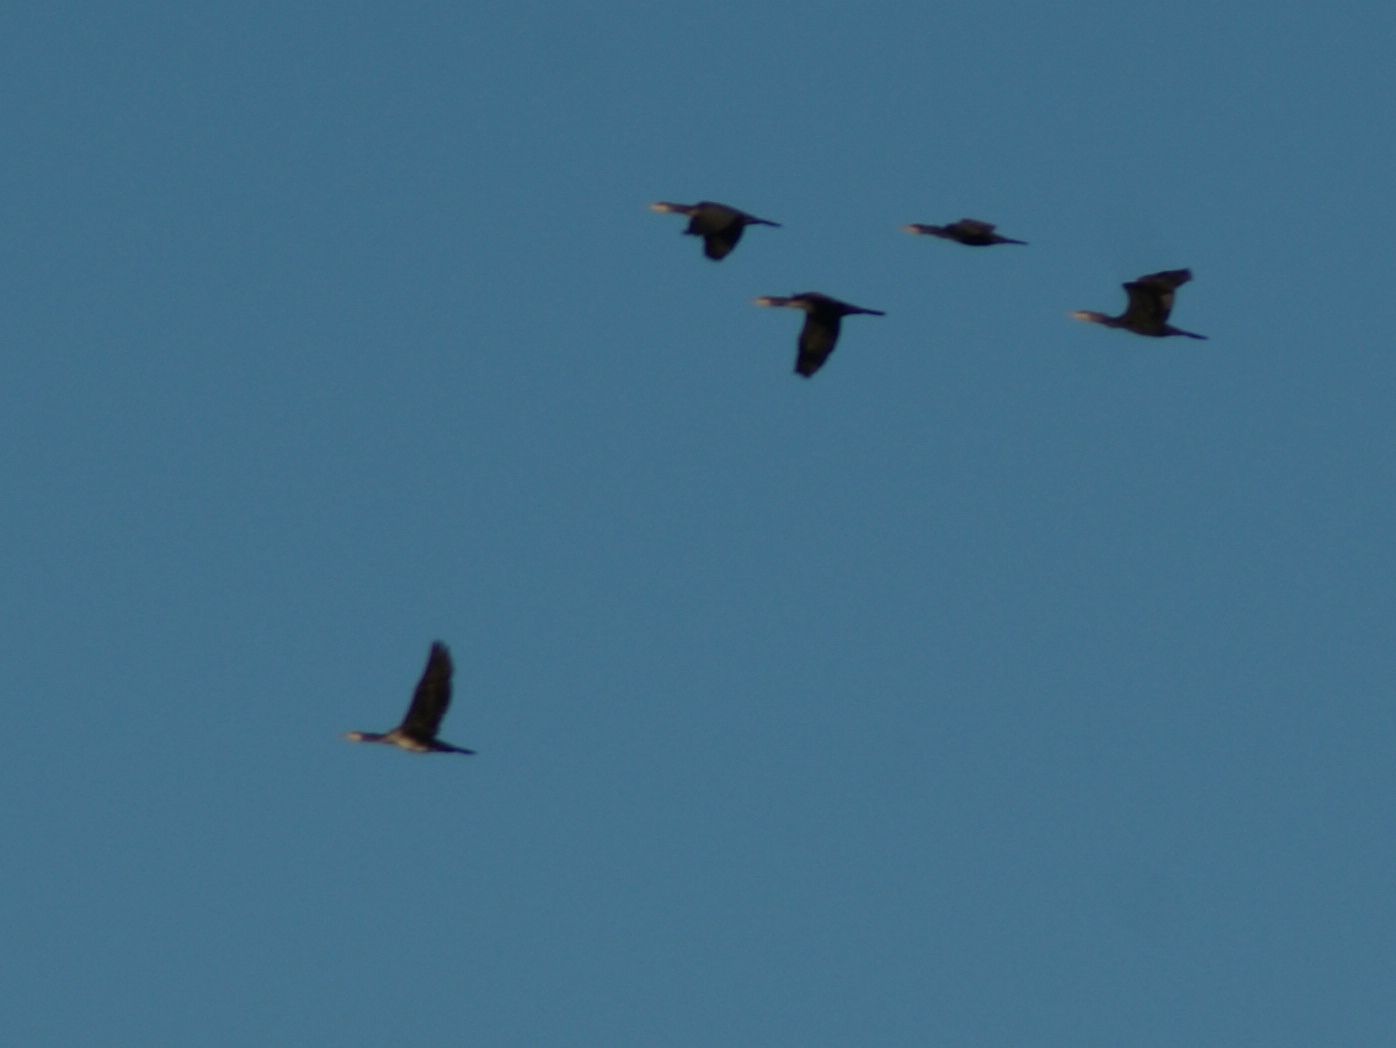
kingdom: Animalia
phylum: Chordata
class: Aves
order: Suliformes
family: Phalacrocoracidae
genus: Phalacrocorax
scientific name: Phalacrocorax carbo
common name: Great cormorant
